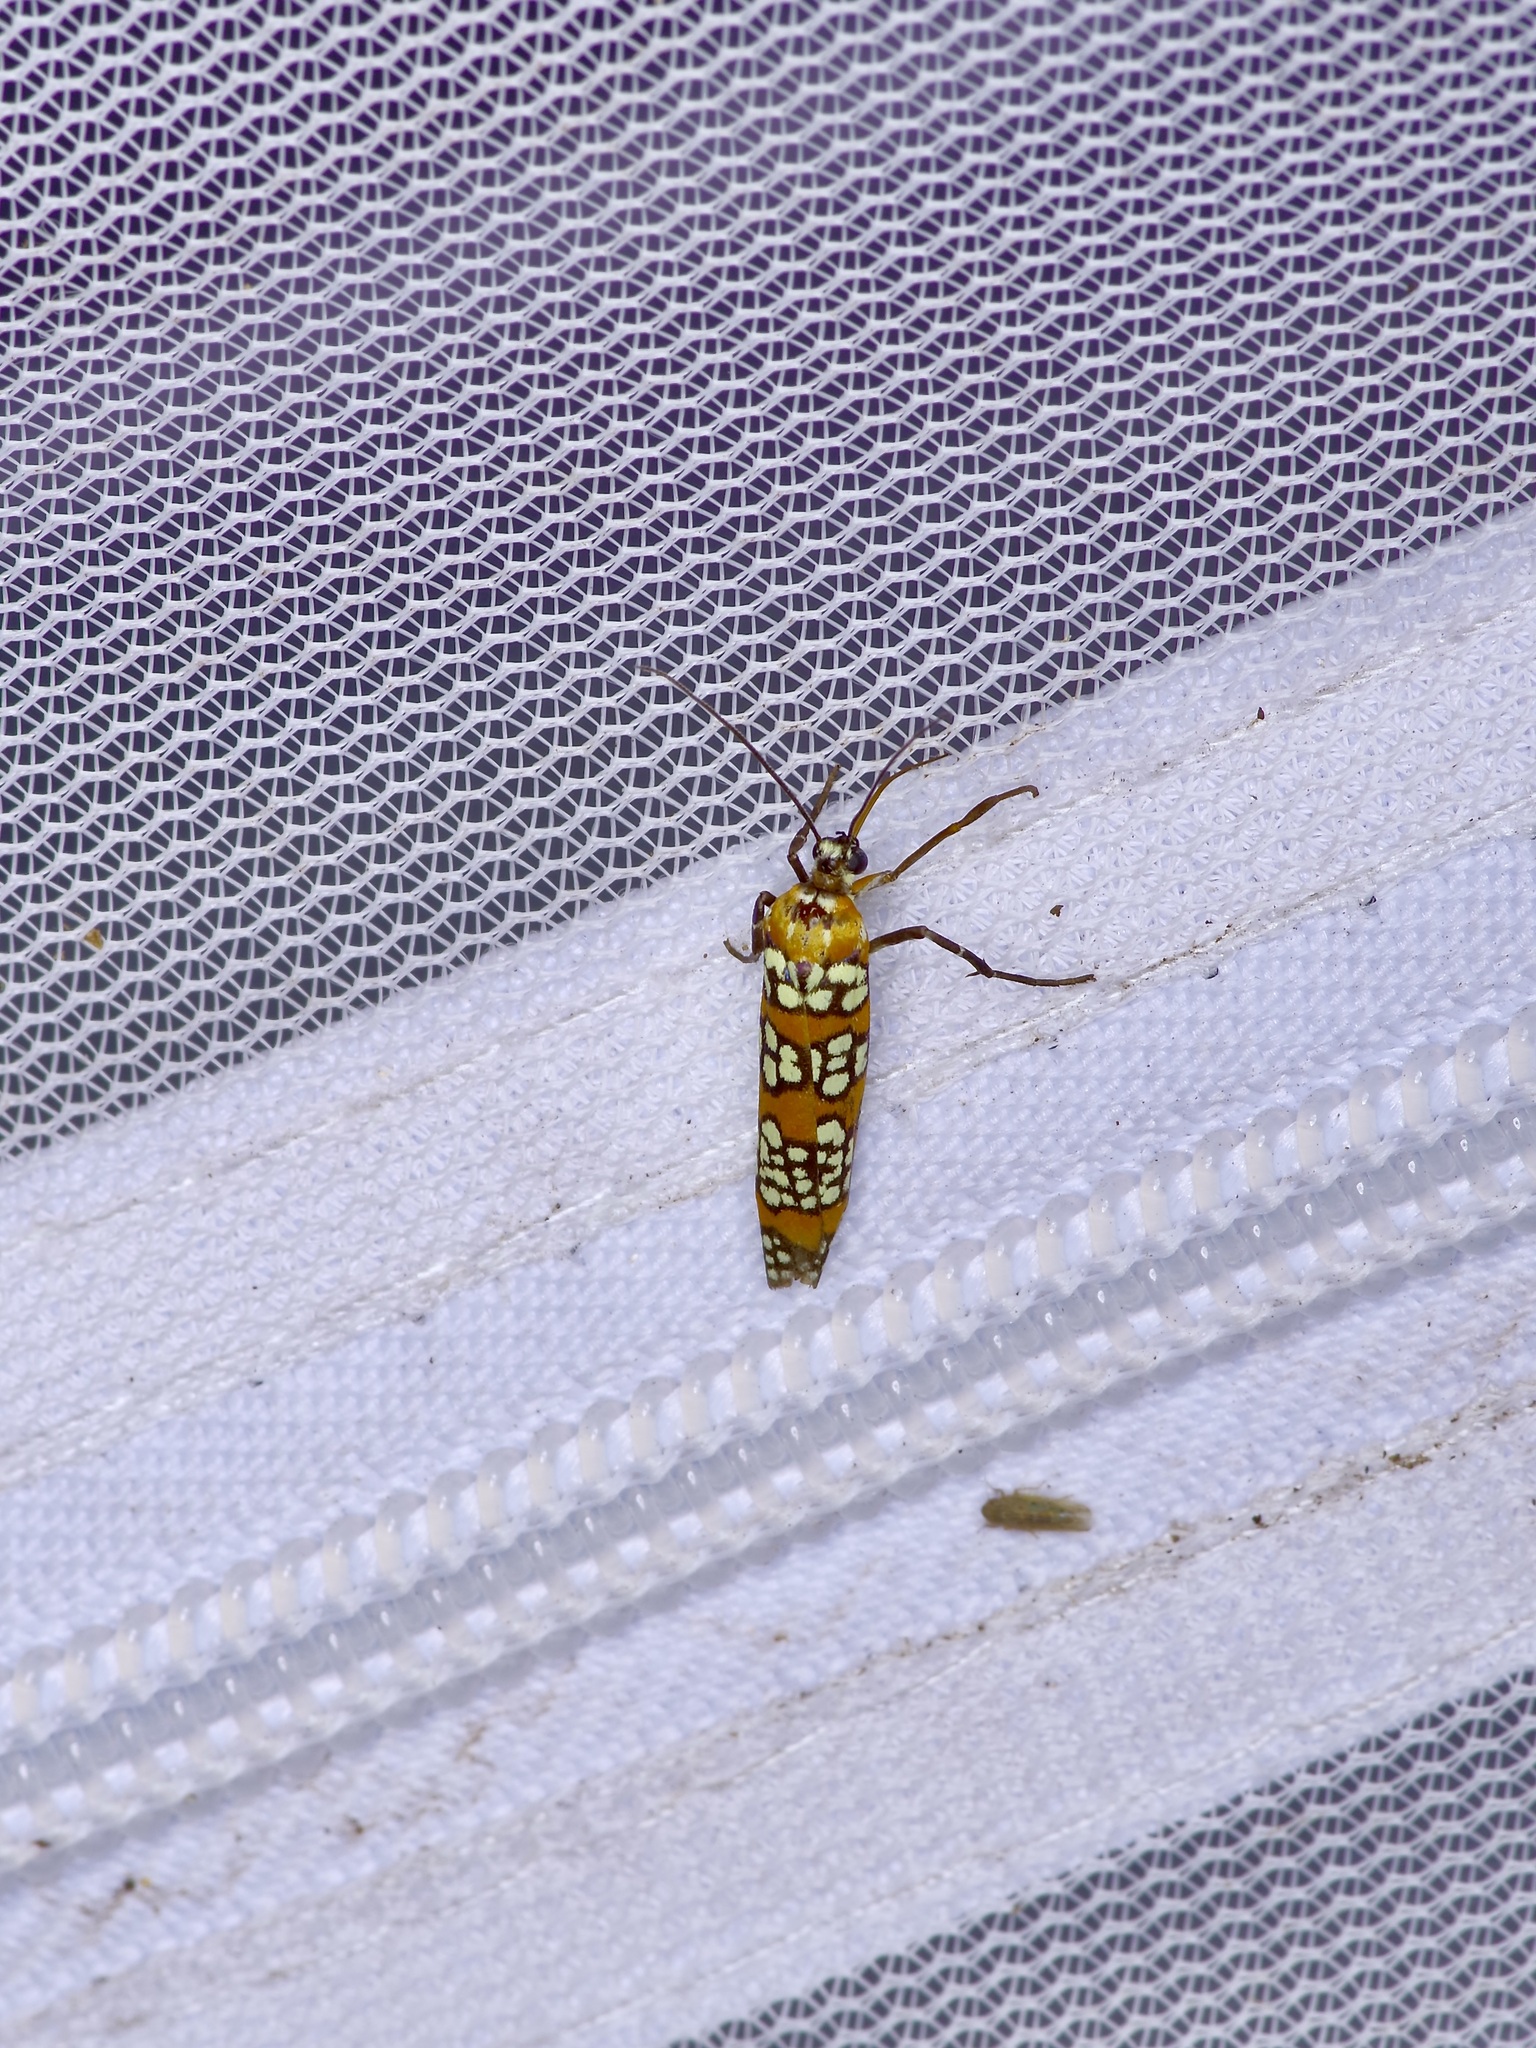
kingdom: Animalia
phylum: Arthropoda
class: Insecta
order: Lepidoptera
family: Attevidae
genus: Atteva
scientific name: Atteva punctella
